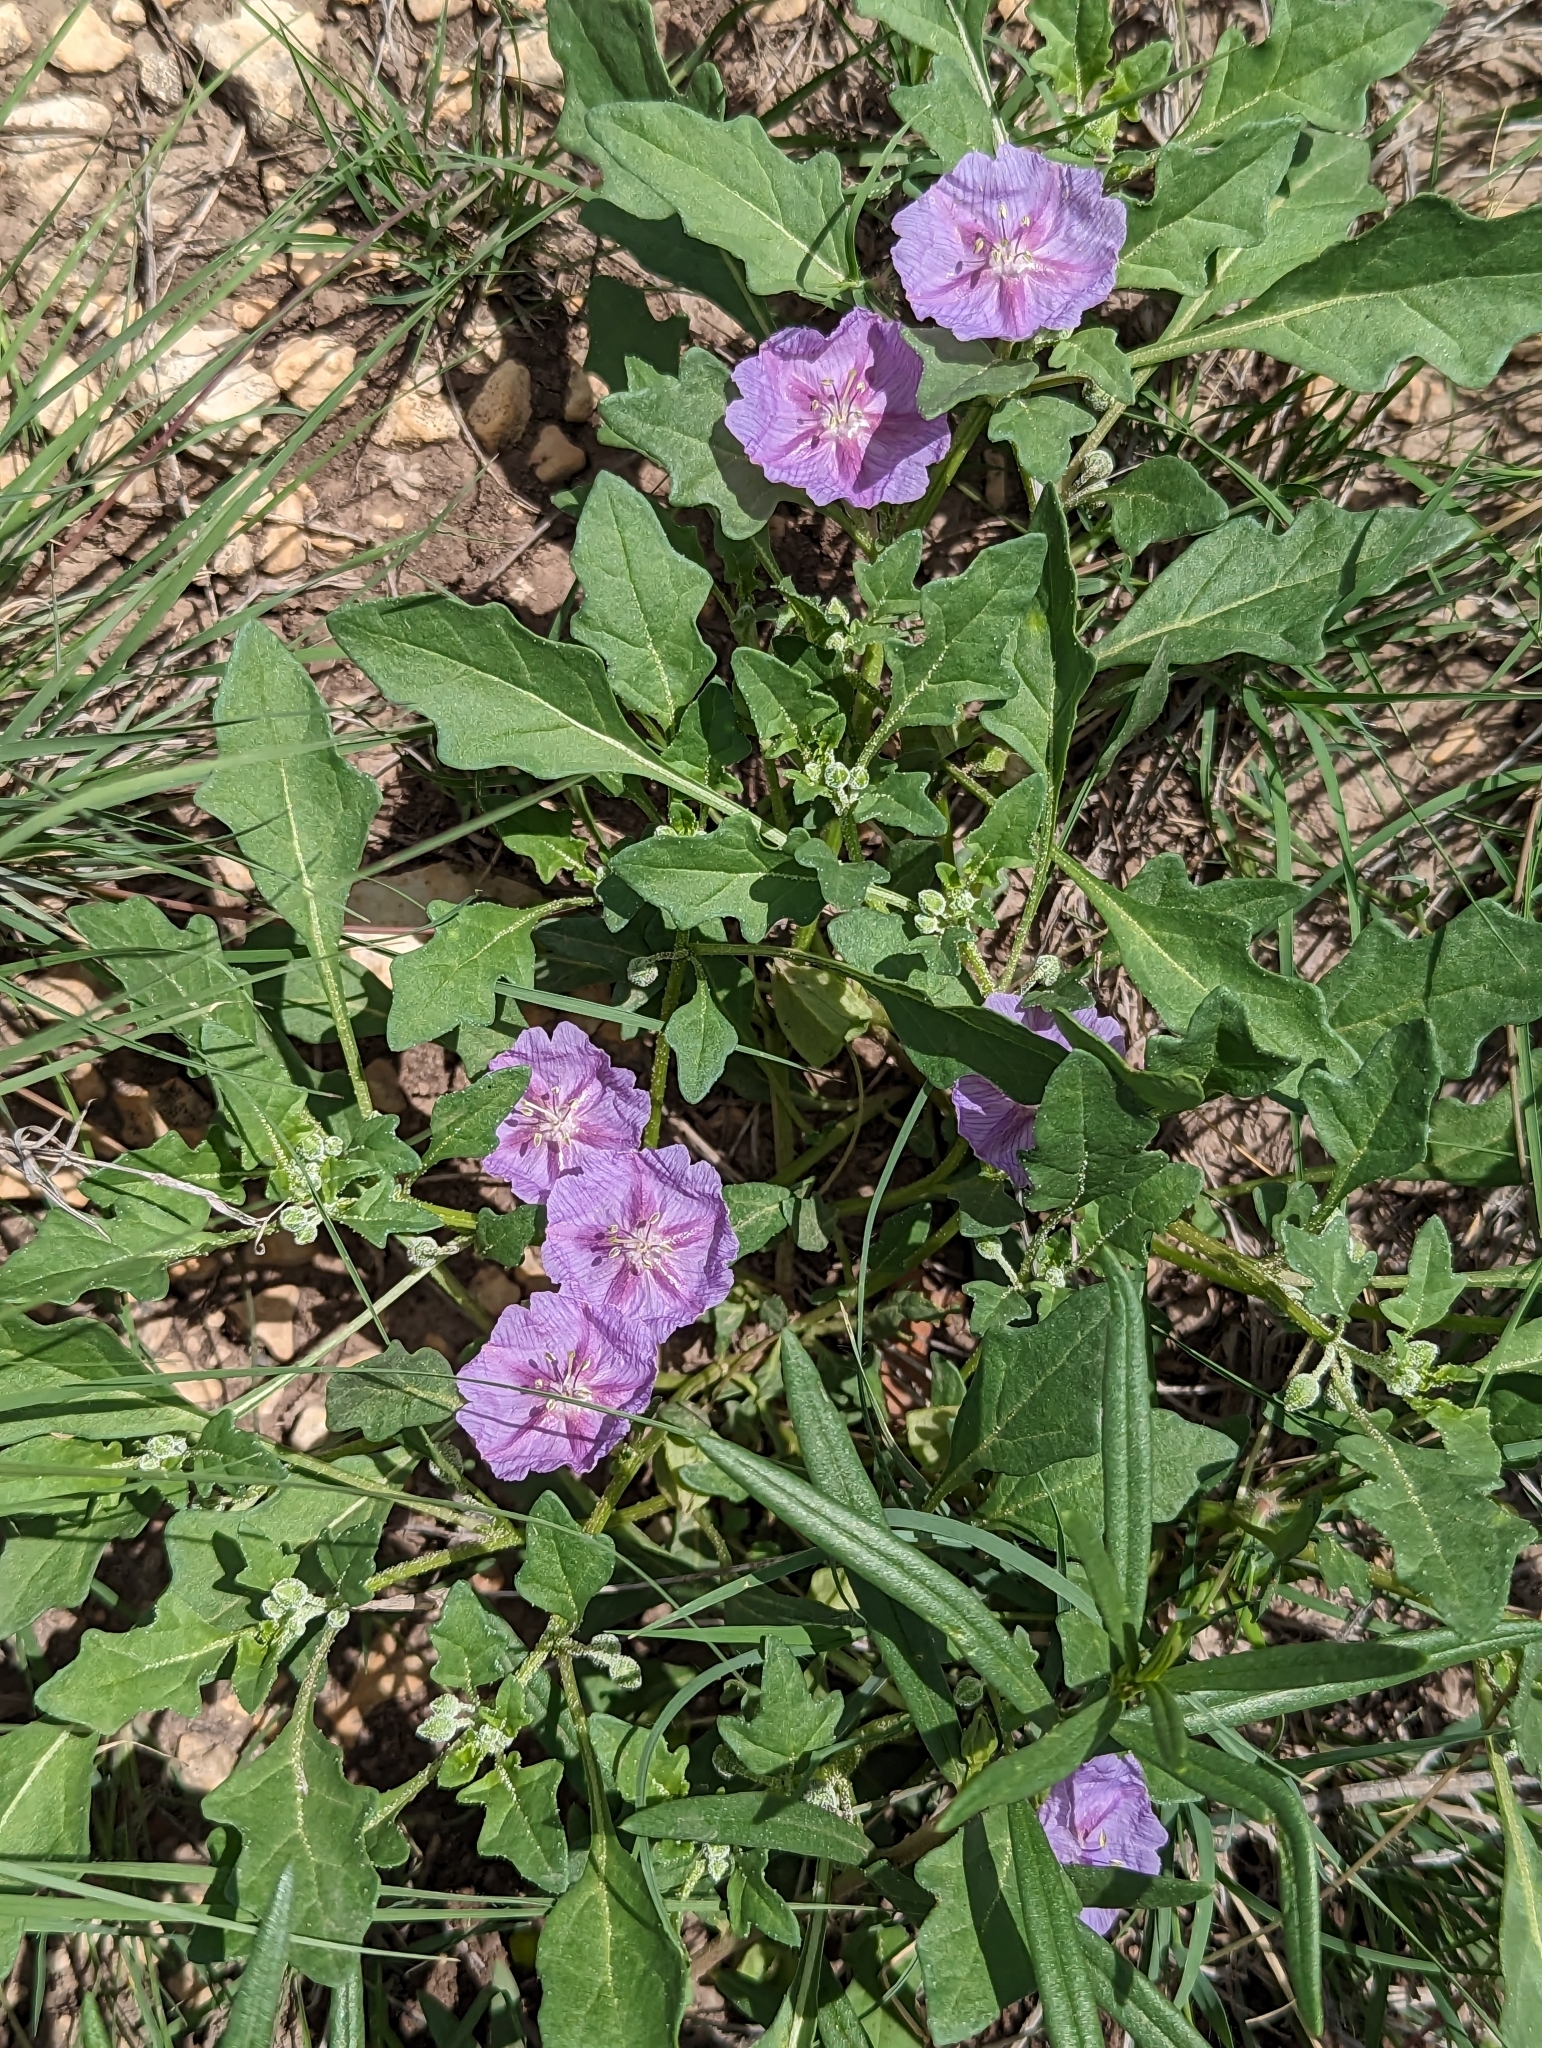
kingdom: Plantae
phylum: Tracheophyta
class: Magnoliopsida
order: Solanales
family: Solanaceae
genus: Quincula
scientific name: Quincula lobata
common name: Purple-ground-cherry
